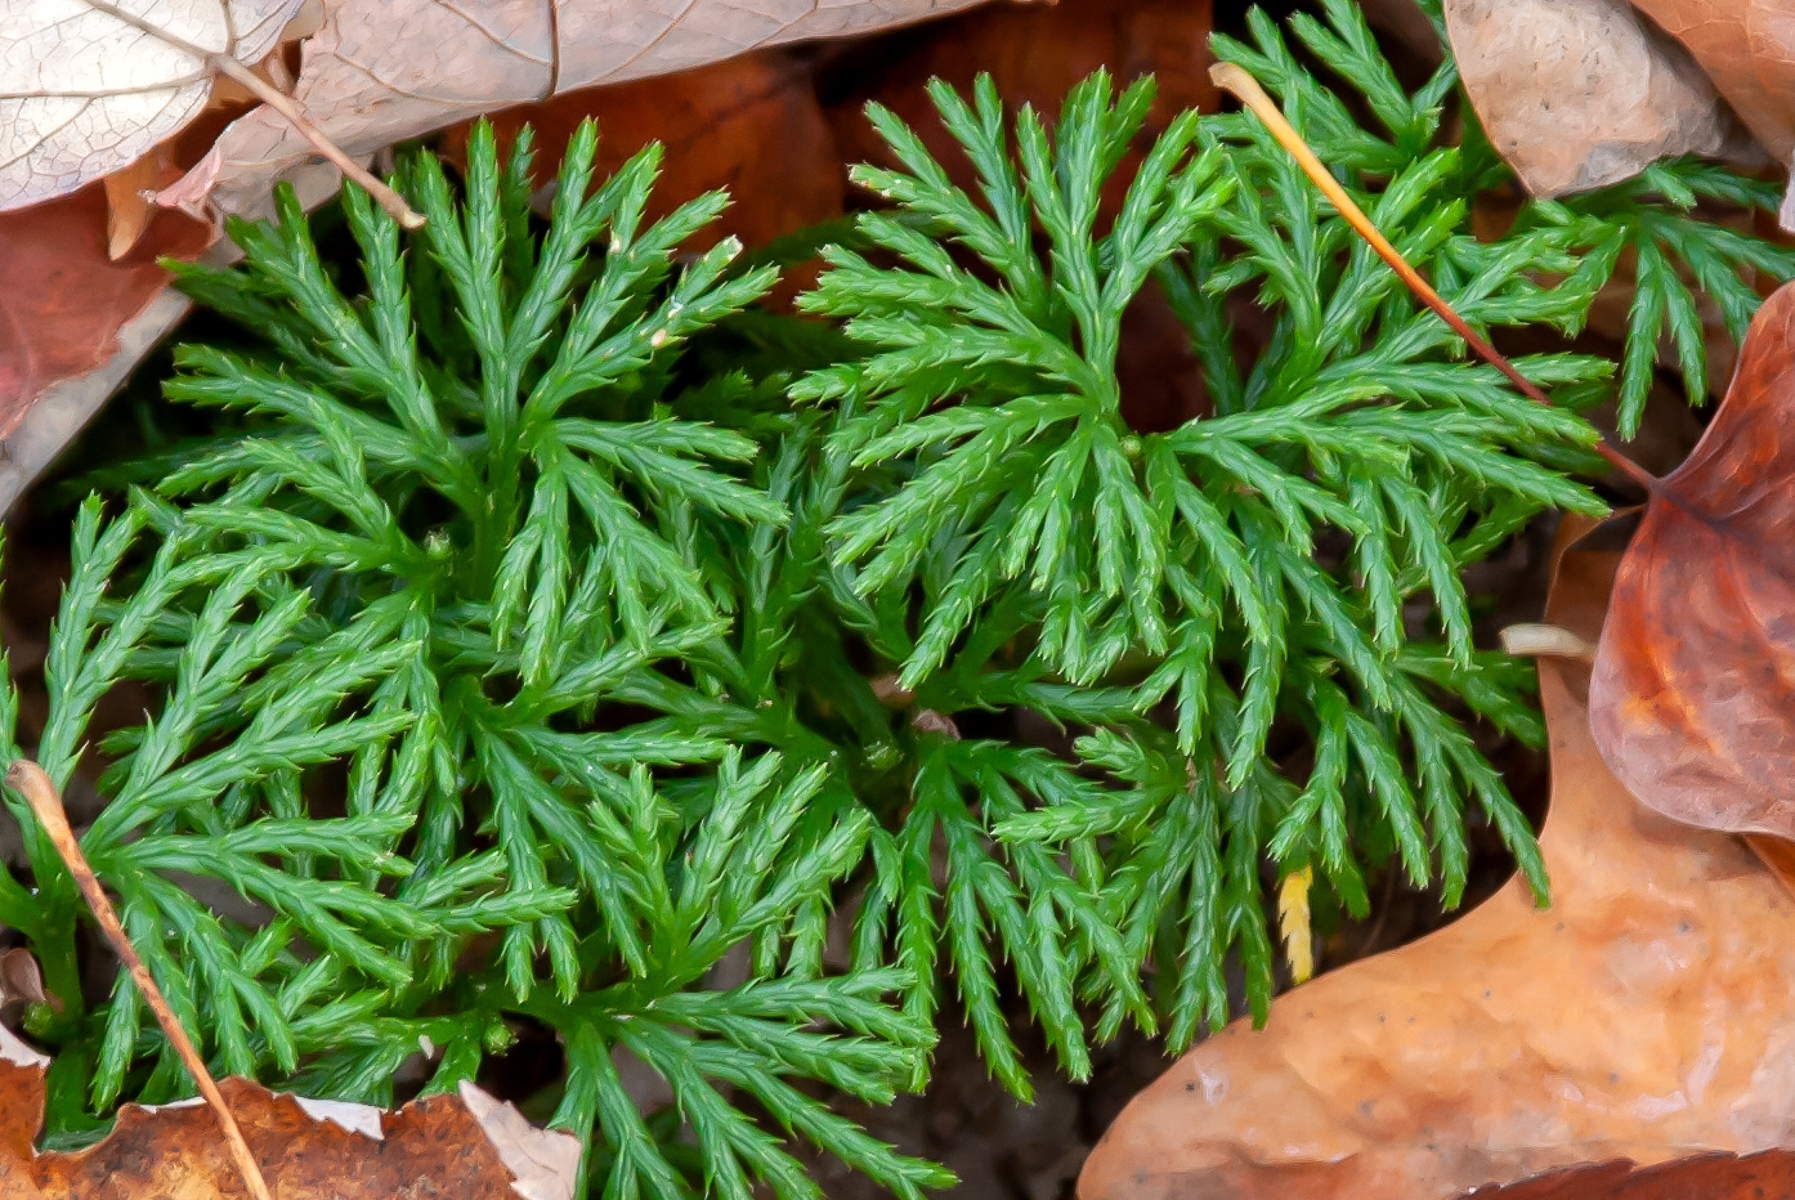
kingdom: Plantae
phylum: Tracheophyta
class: Lycopodiopsida
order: Lycopodiales
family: Lycopodiaceae
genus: Diphasiastrum
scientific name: Diphasiastrum digitatum
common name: Southern running-pine
